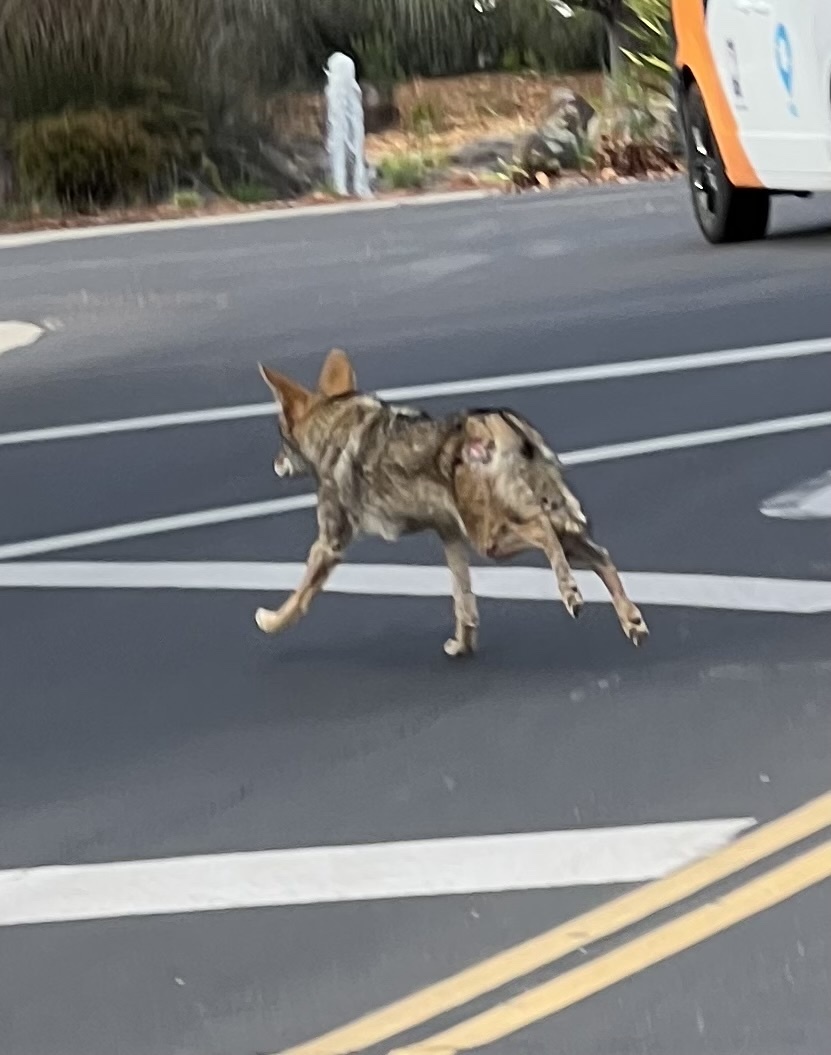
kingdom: Animalia
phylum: Chordata
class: Mammalia
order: Carnivora
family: Canidae
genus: Canis
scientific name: Canis latrans
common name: Coyote
